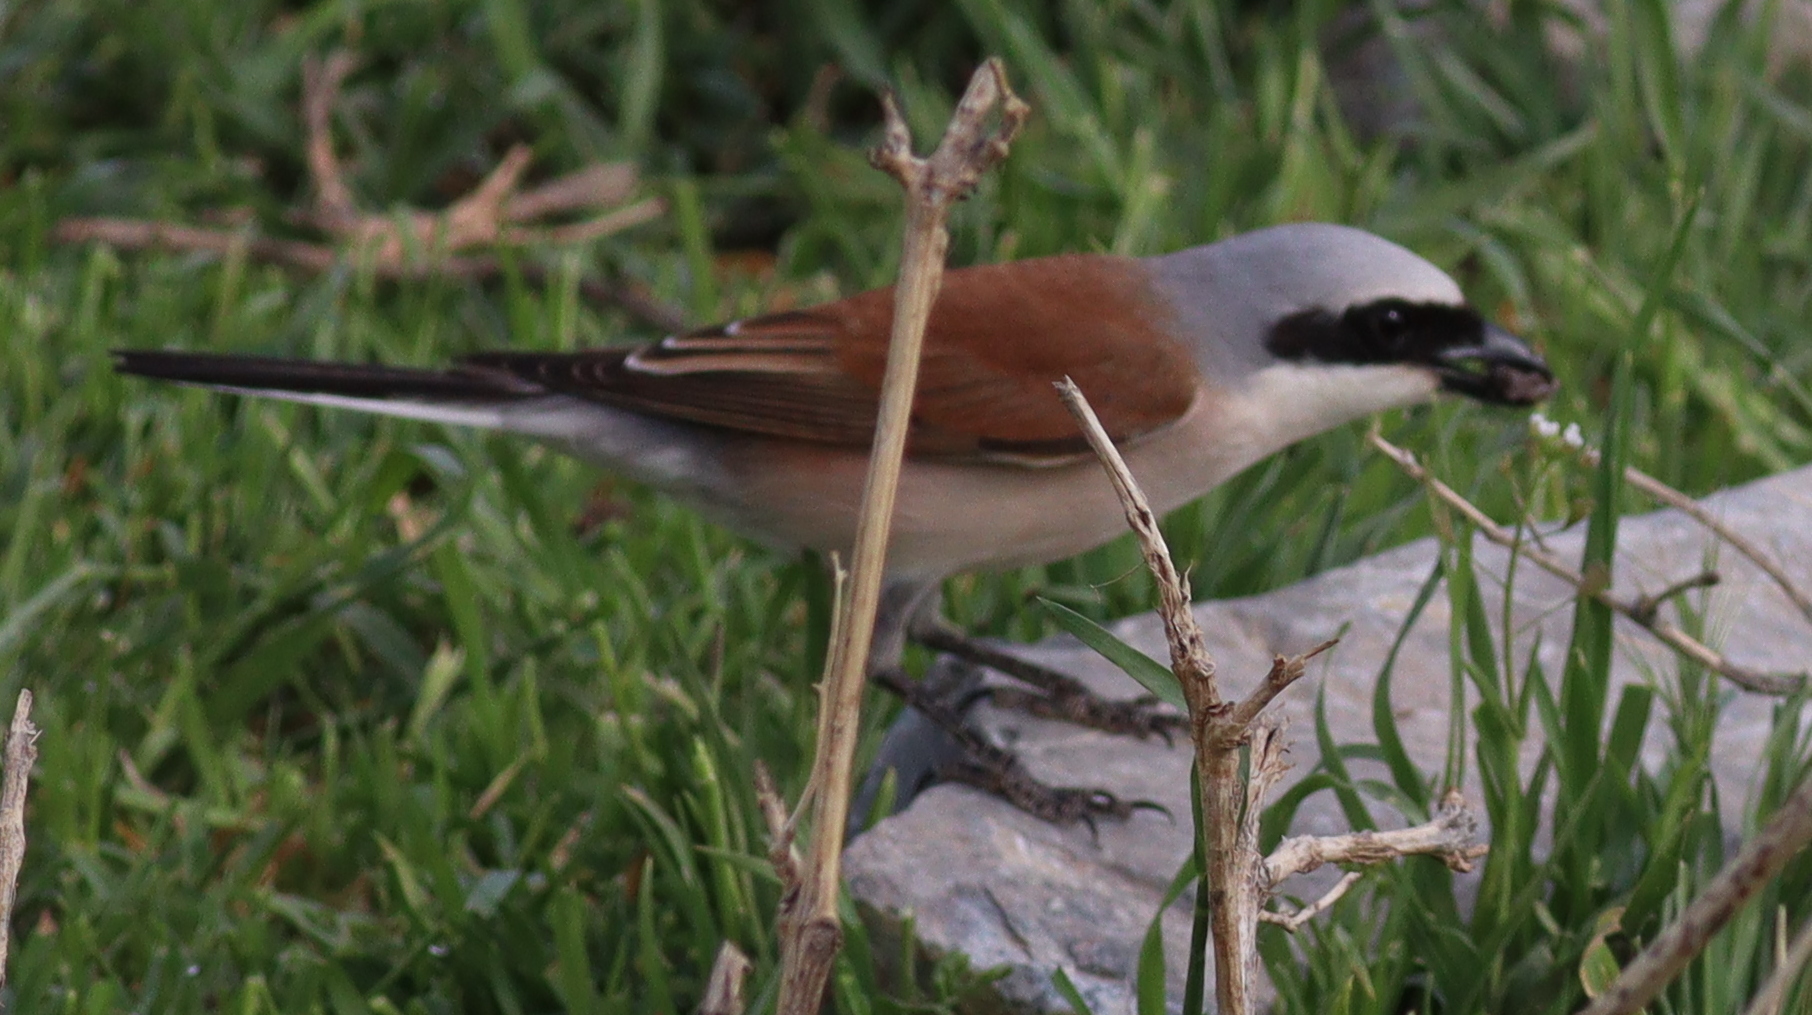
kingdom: Animalia
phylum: Chordata
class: Aves
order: Passeriformes
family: Laniidae
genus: Lanius
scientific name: Lanius collurio
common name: Red-backed shrike
